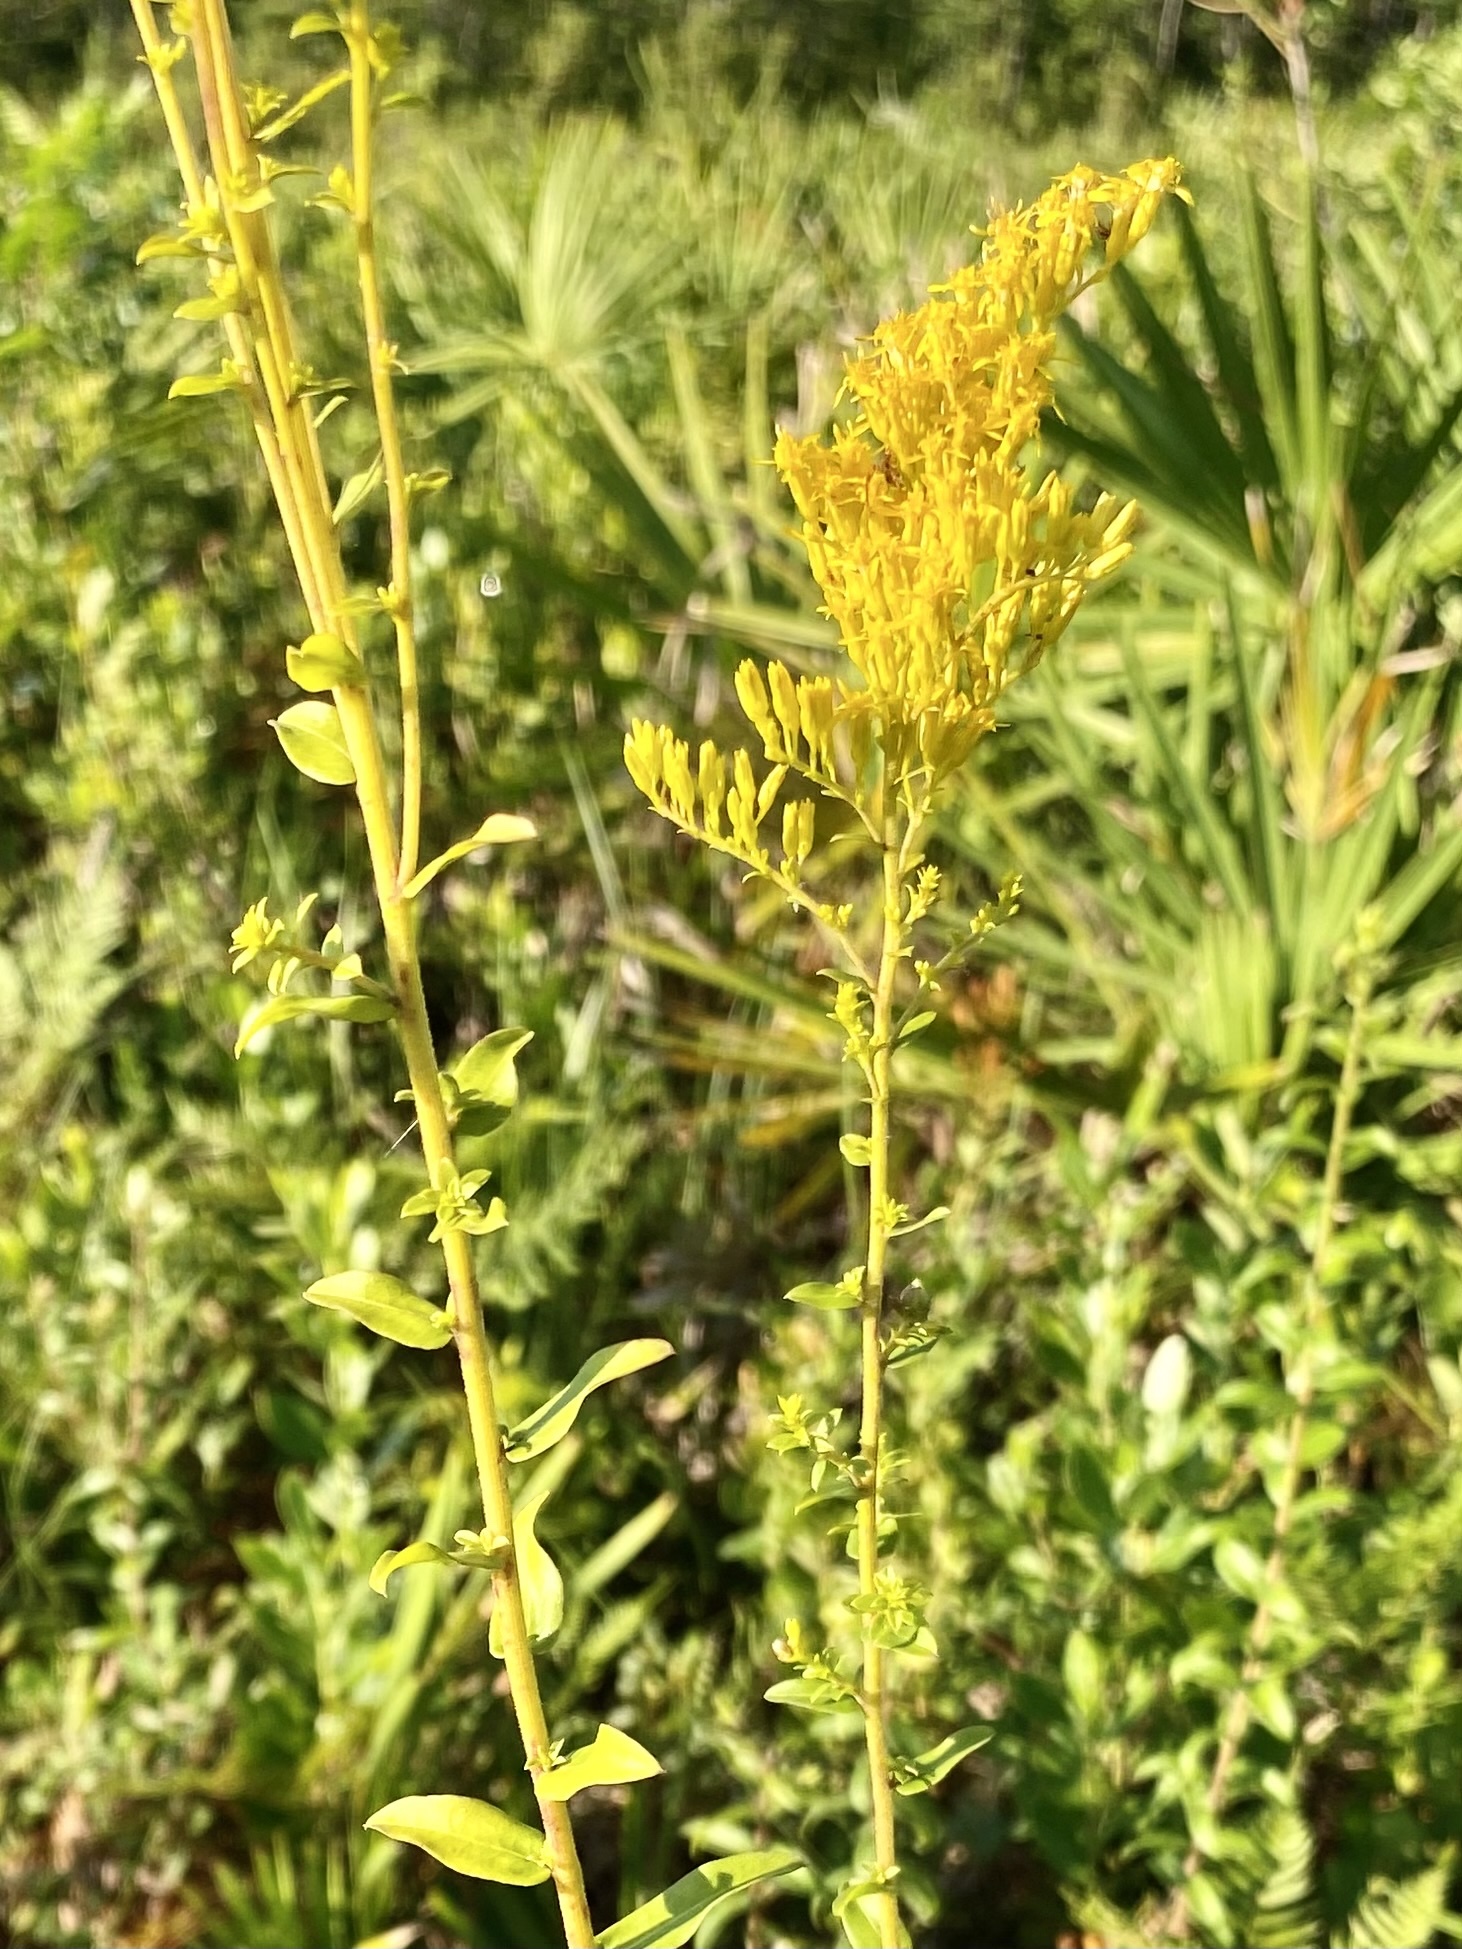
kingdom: Plantae
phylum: Tracheophyta
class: Magnoliopsida
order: Asterales
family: Asteraceae
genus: Solidago
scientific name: Solidago chapmanii
